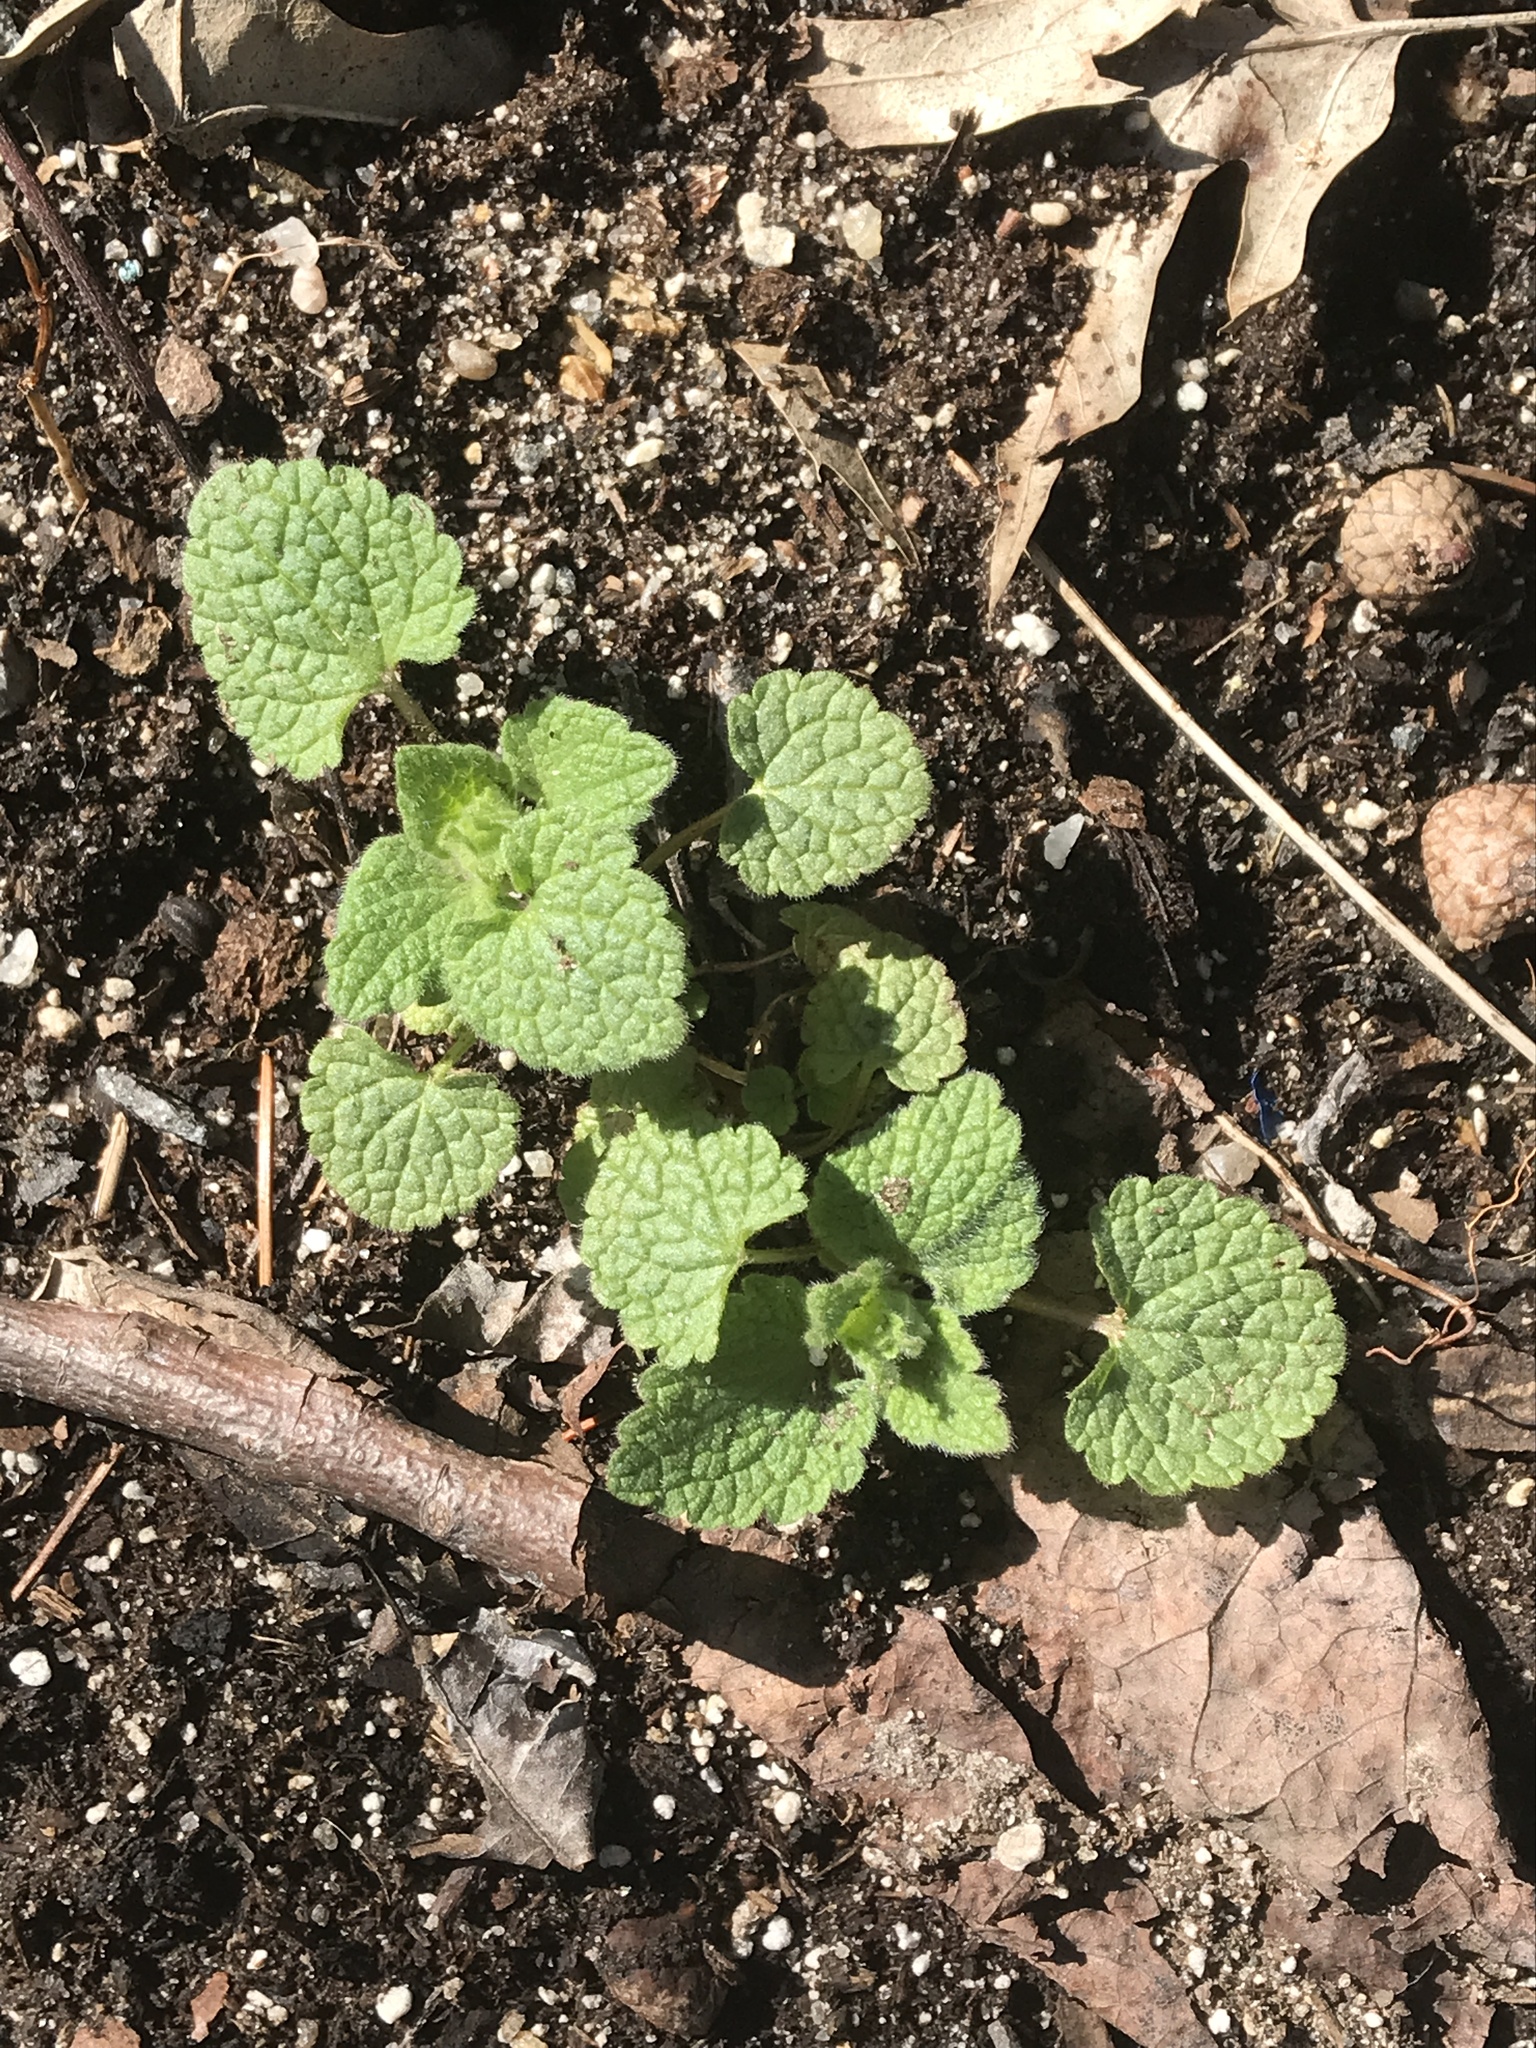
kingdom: Plantae
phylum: Tracheophyta
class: Magnoliopsida
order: Lamiales
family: Lamiaceae
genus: Lamium
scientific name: Lamium purpureum
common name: Red dead-nettle
